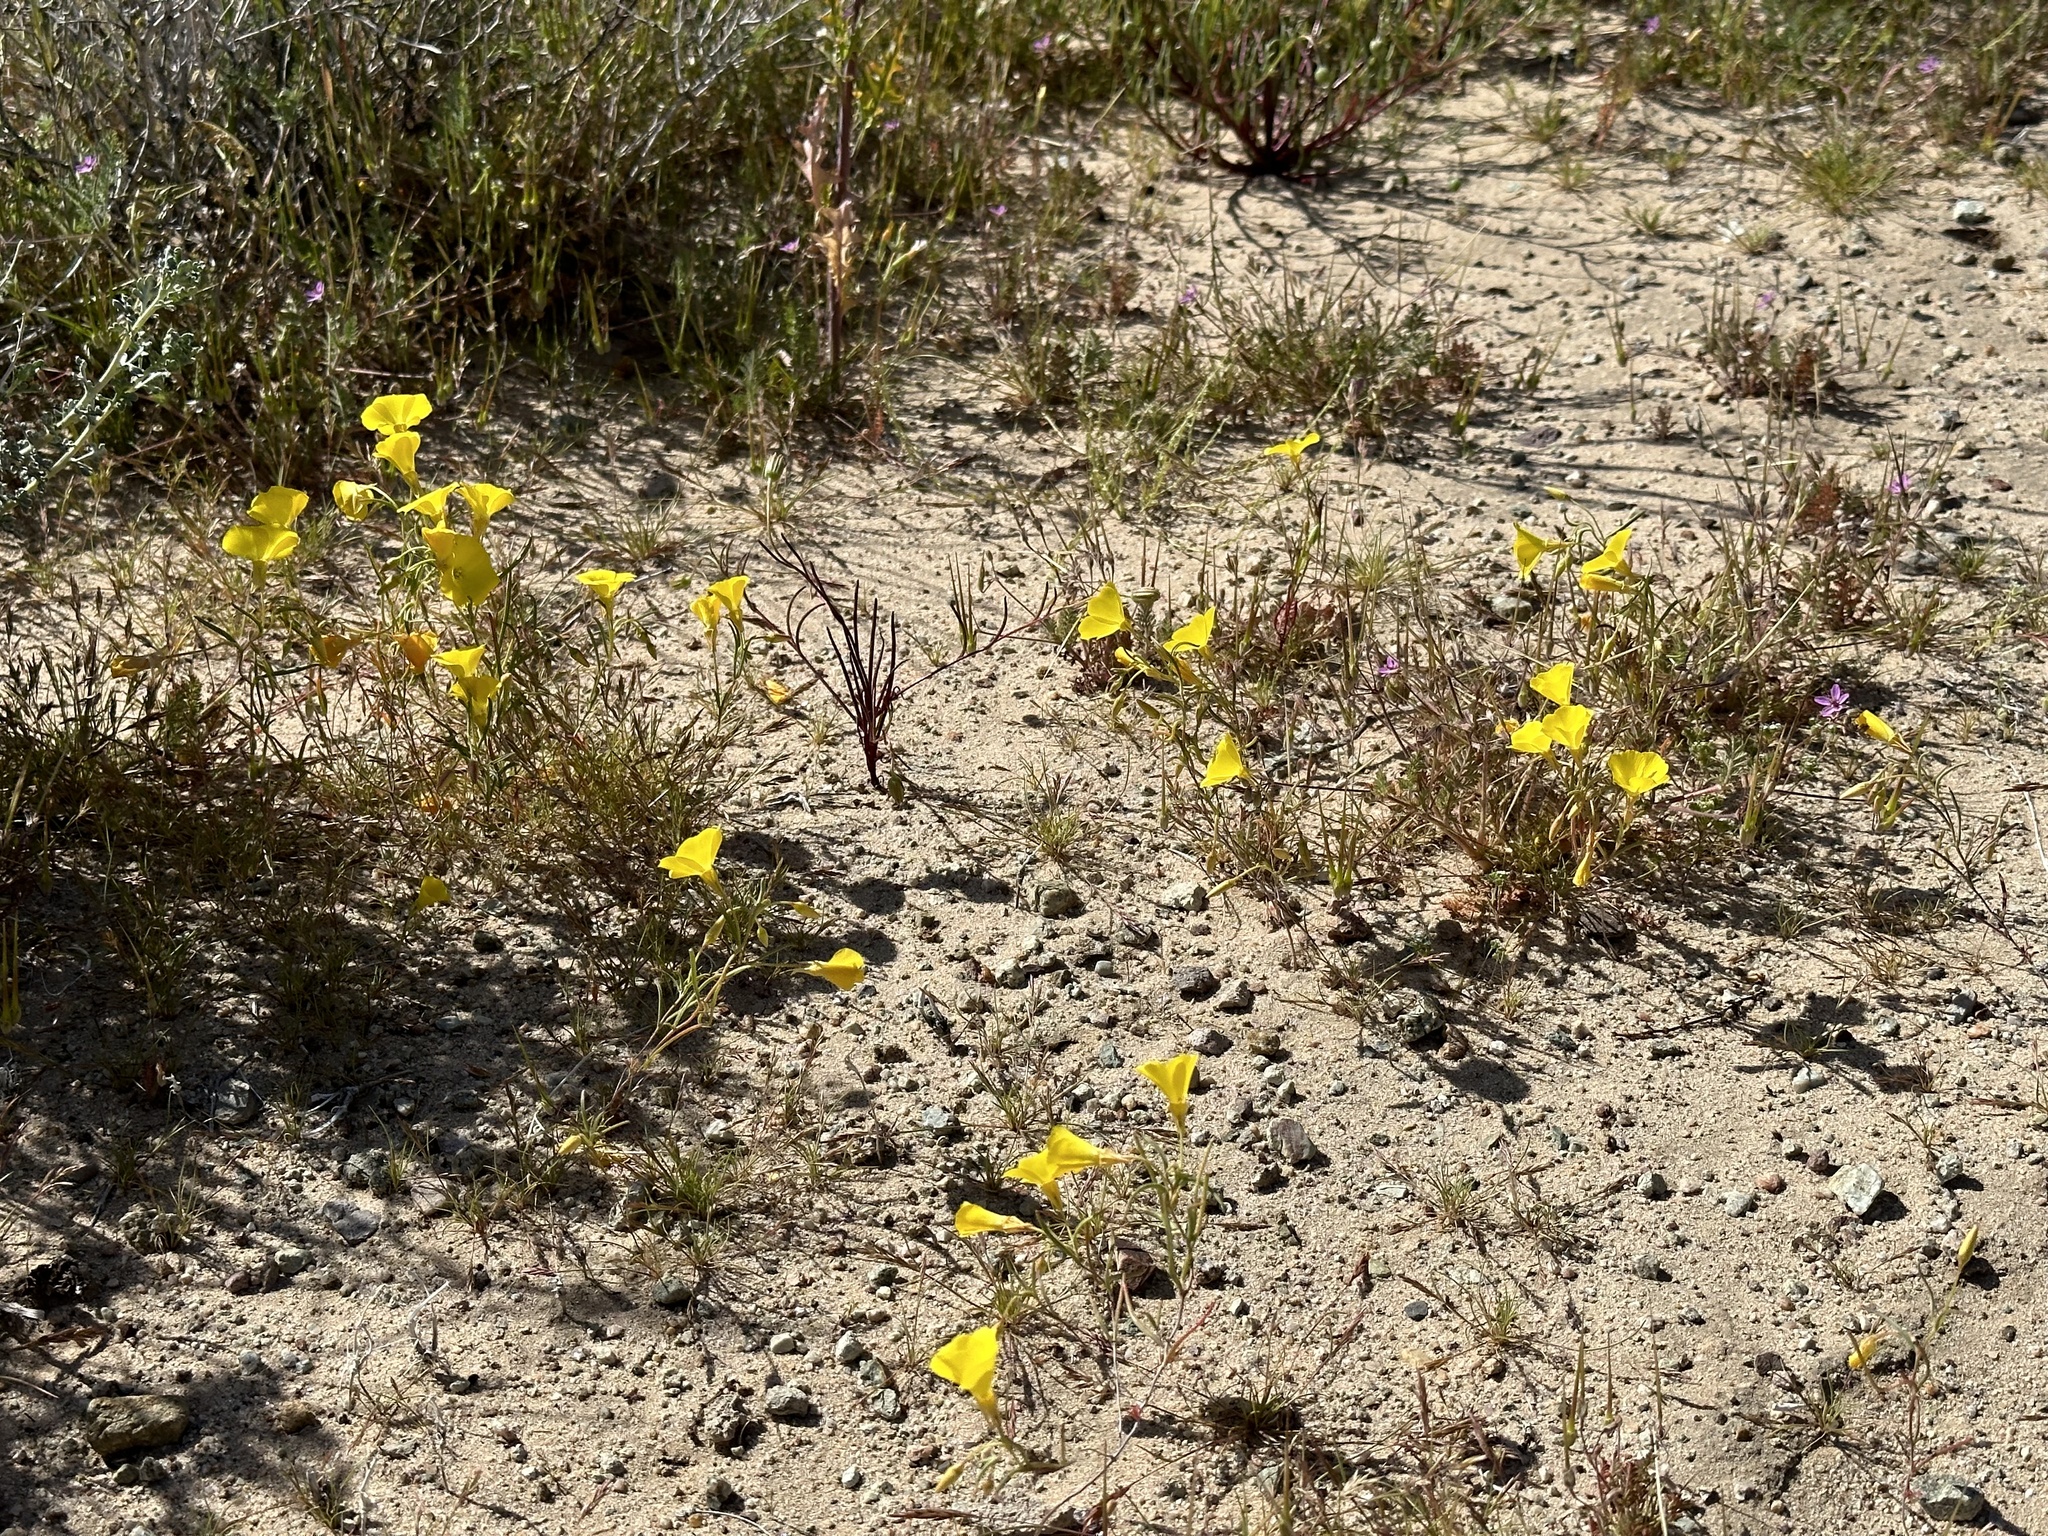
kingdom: Plantae
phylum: Tracheophyta
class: Magnoliopsida
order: Myrtales
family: Onagraceae
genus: Camissonia
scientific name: Camissonia campestris
